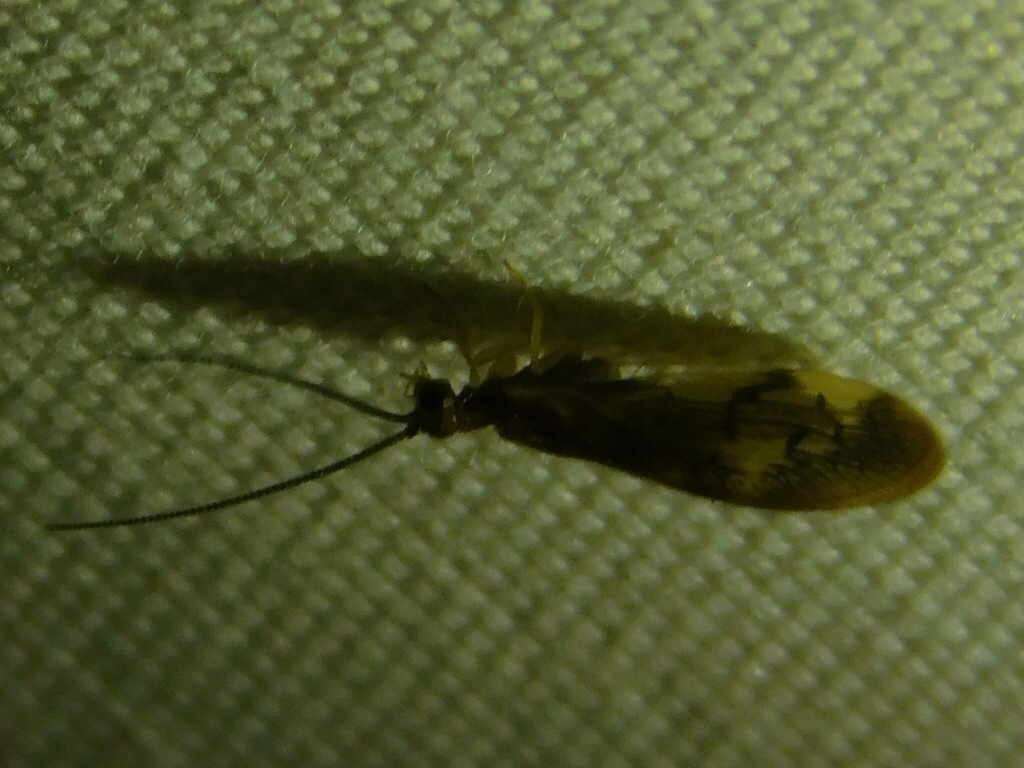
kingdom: Animalia
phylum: Arthropoda
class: Insecta
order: Neuroptera
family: Sisyridae
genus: Climacia
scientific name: Climacia areolaris
